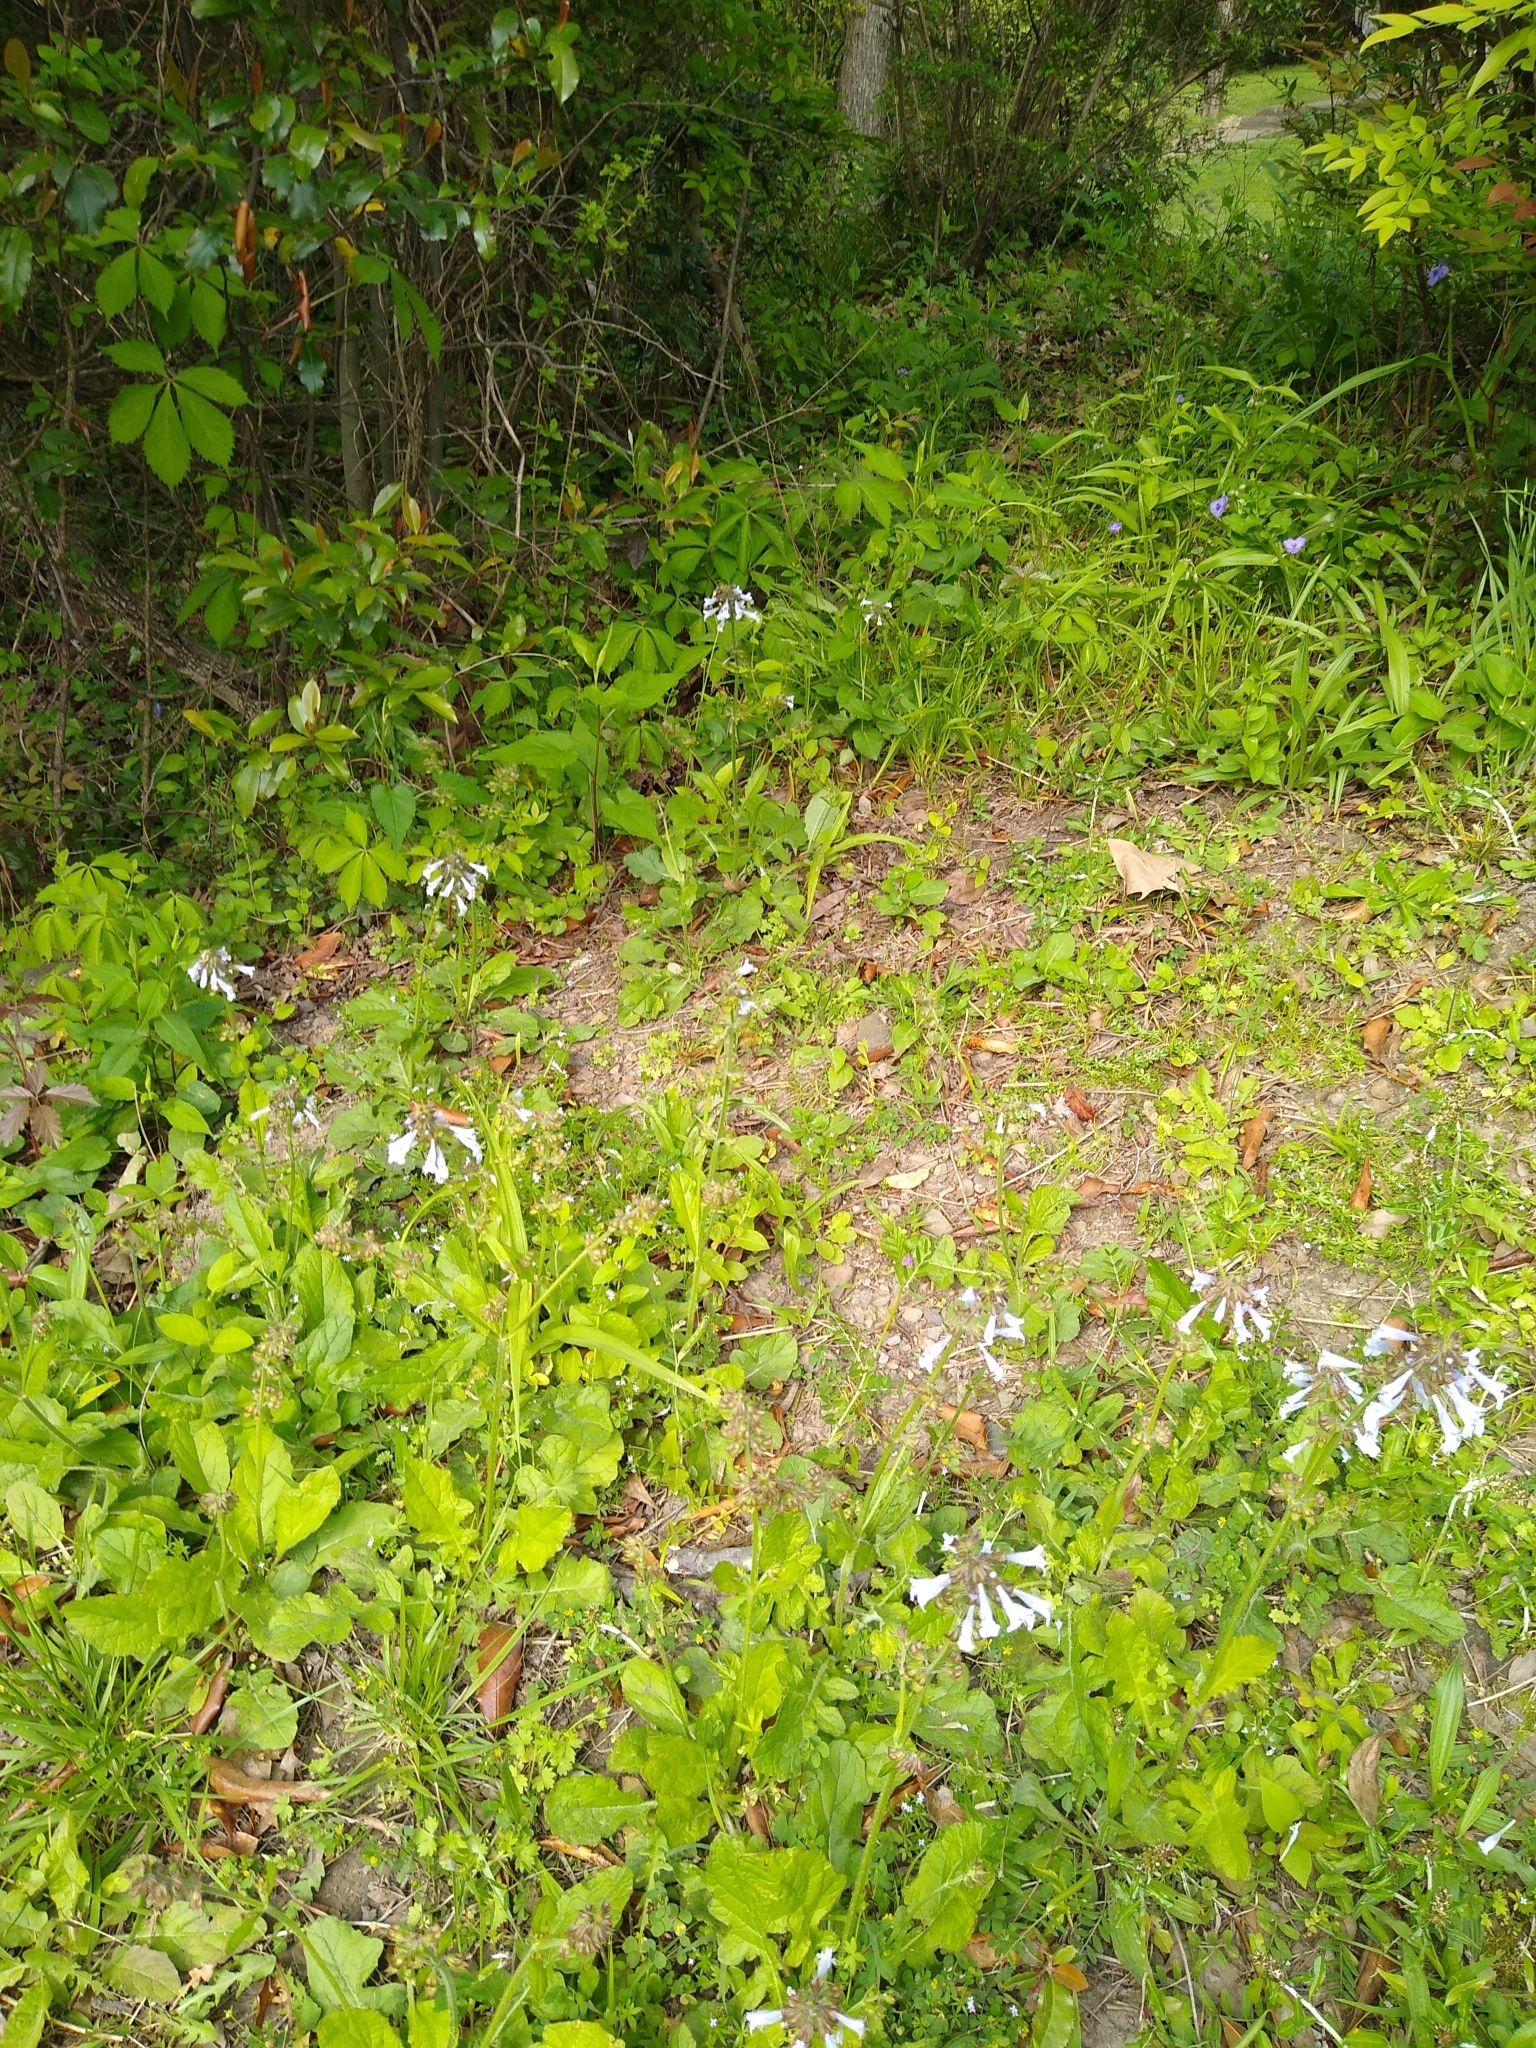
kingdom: Plantae
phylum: Tracheophyta
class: Magnoliopsida
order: Lamiales
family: Lamiaceae
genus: Salvia
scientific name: Salvia lyrata
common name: Cancerweed
